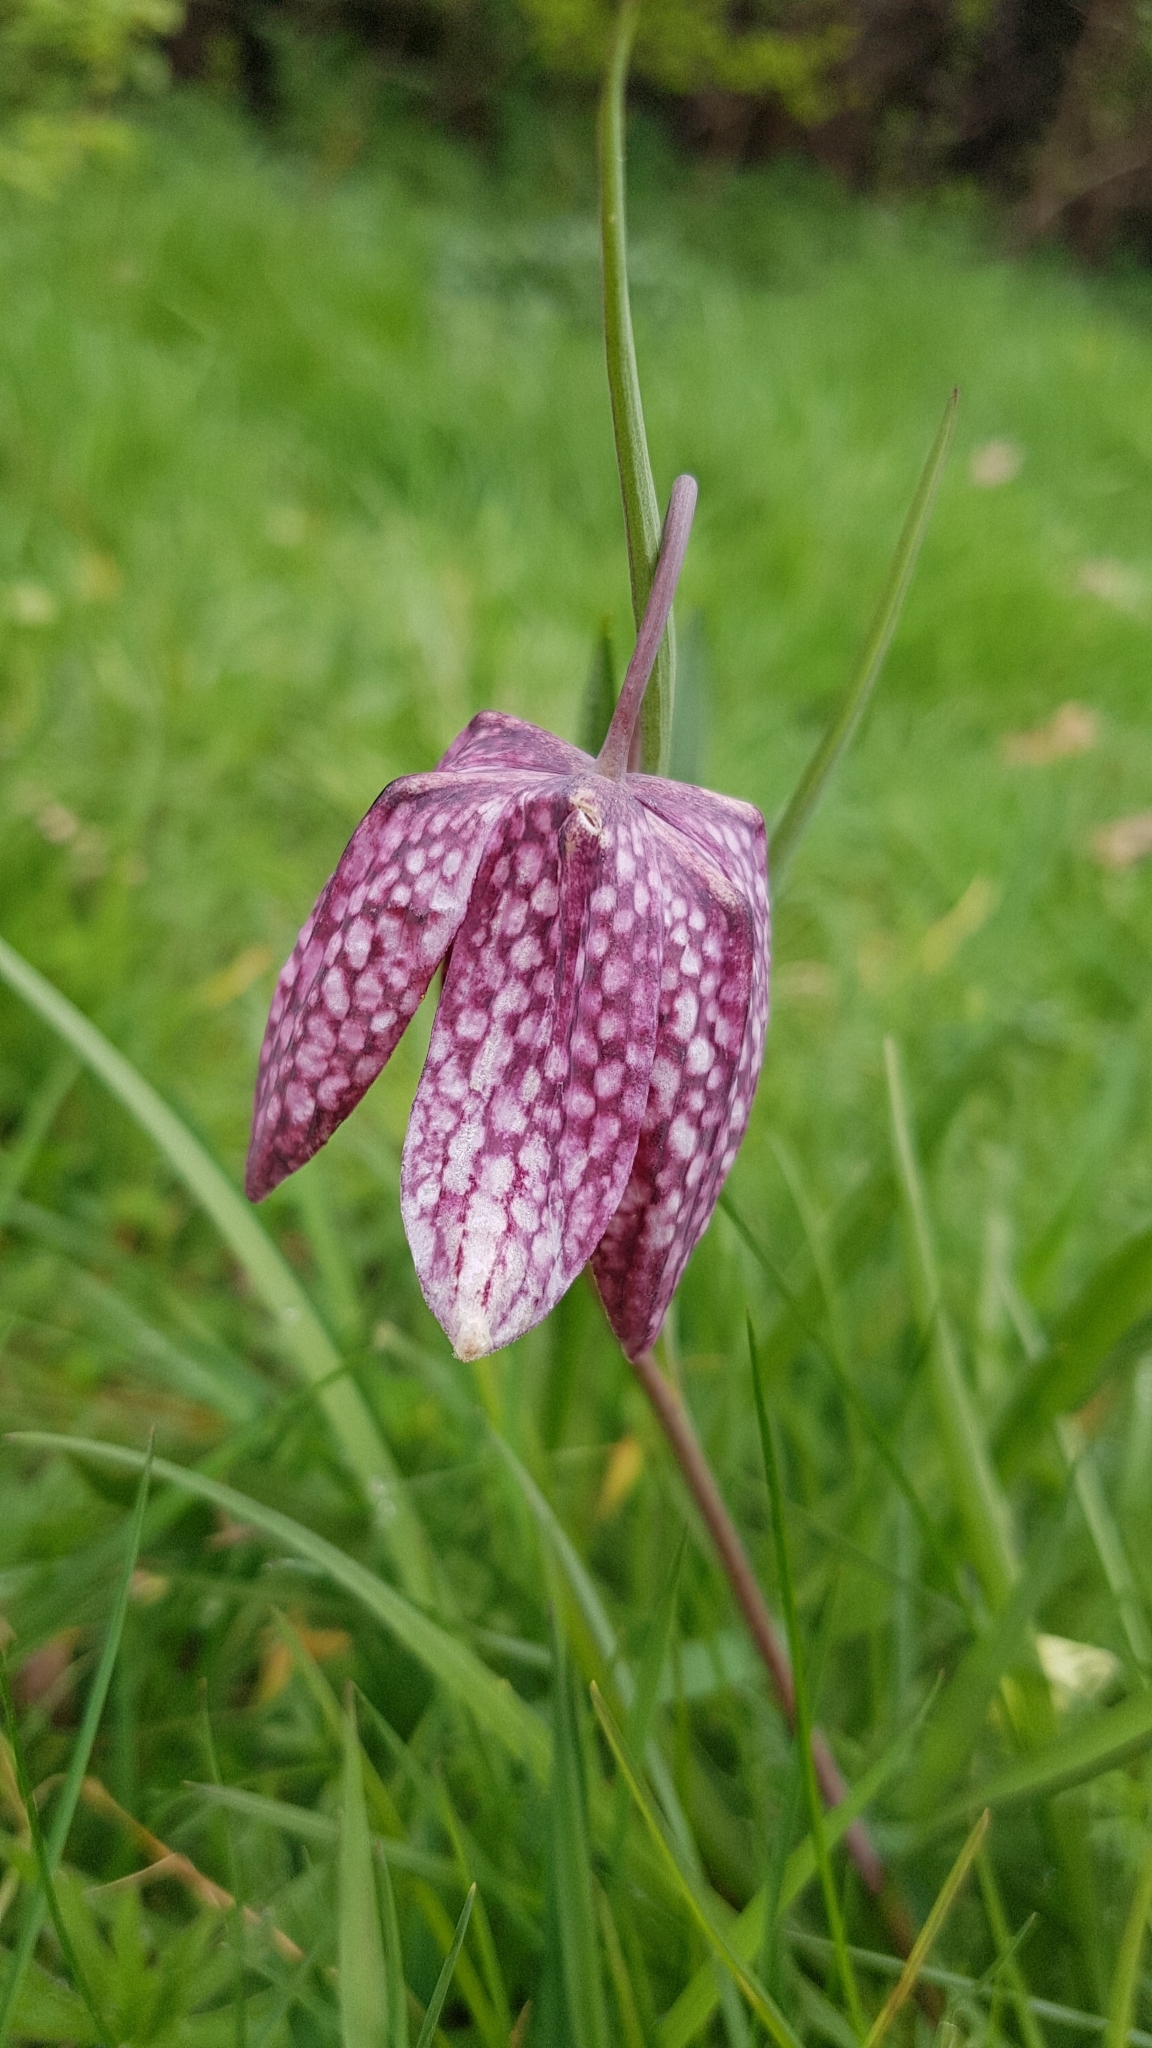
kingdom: Plantae
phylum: Tracheophyta
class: Liliopsida
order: Liliales
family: Liliaceae
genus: Fritillaria
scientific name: Fritillaria meleagris
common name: Fritillary
